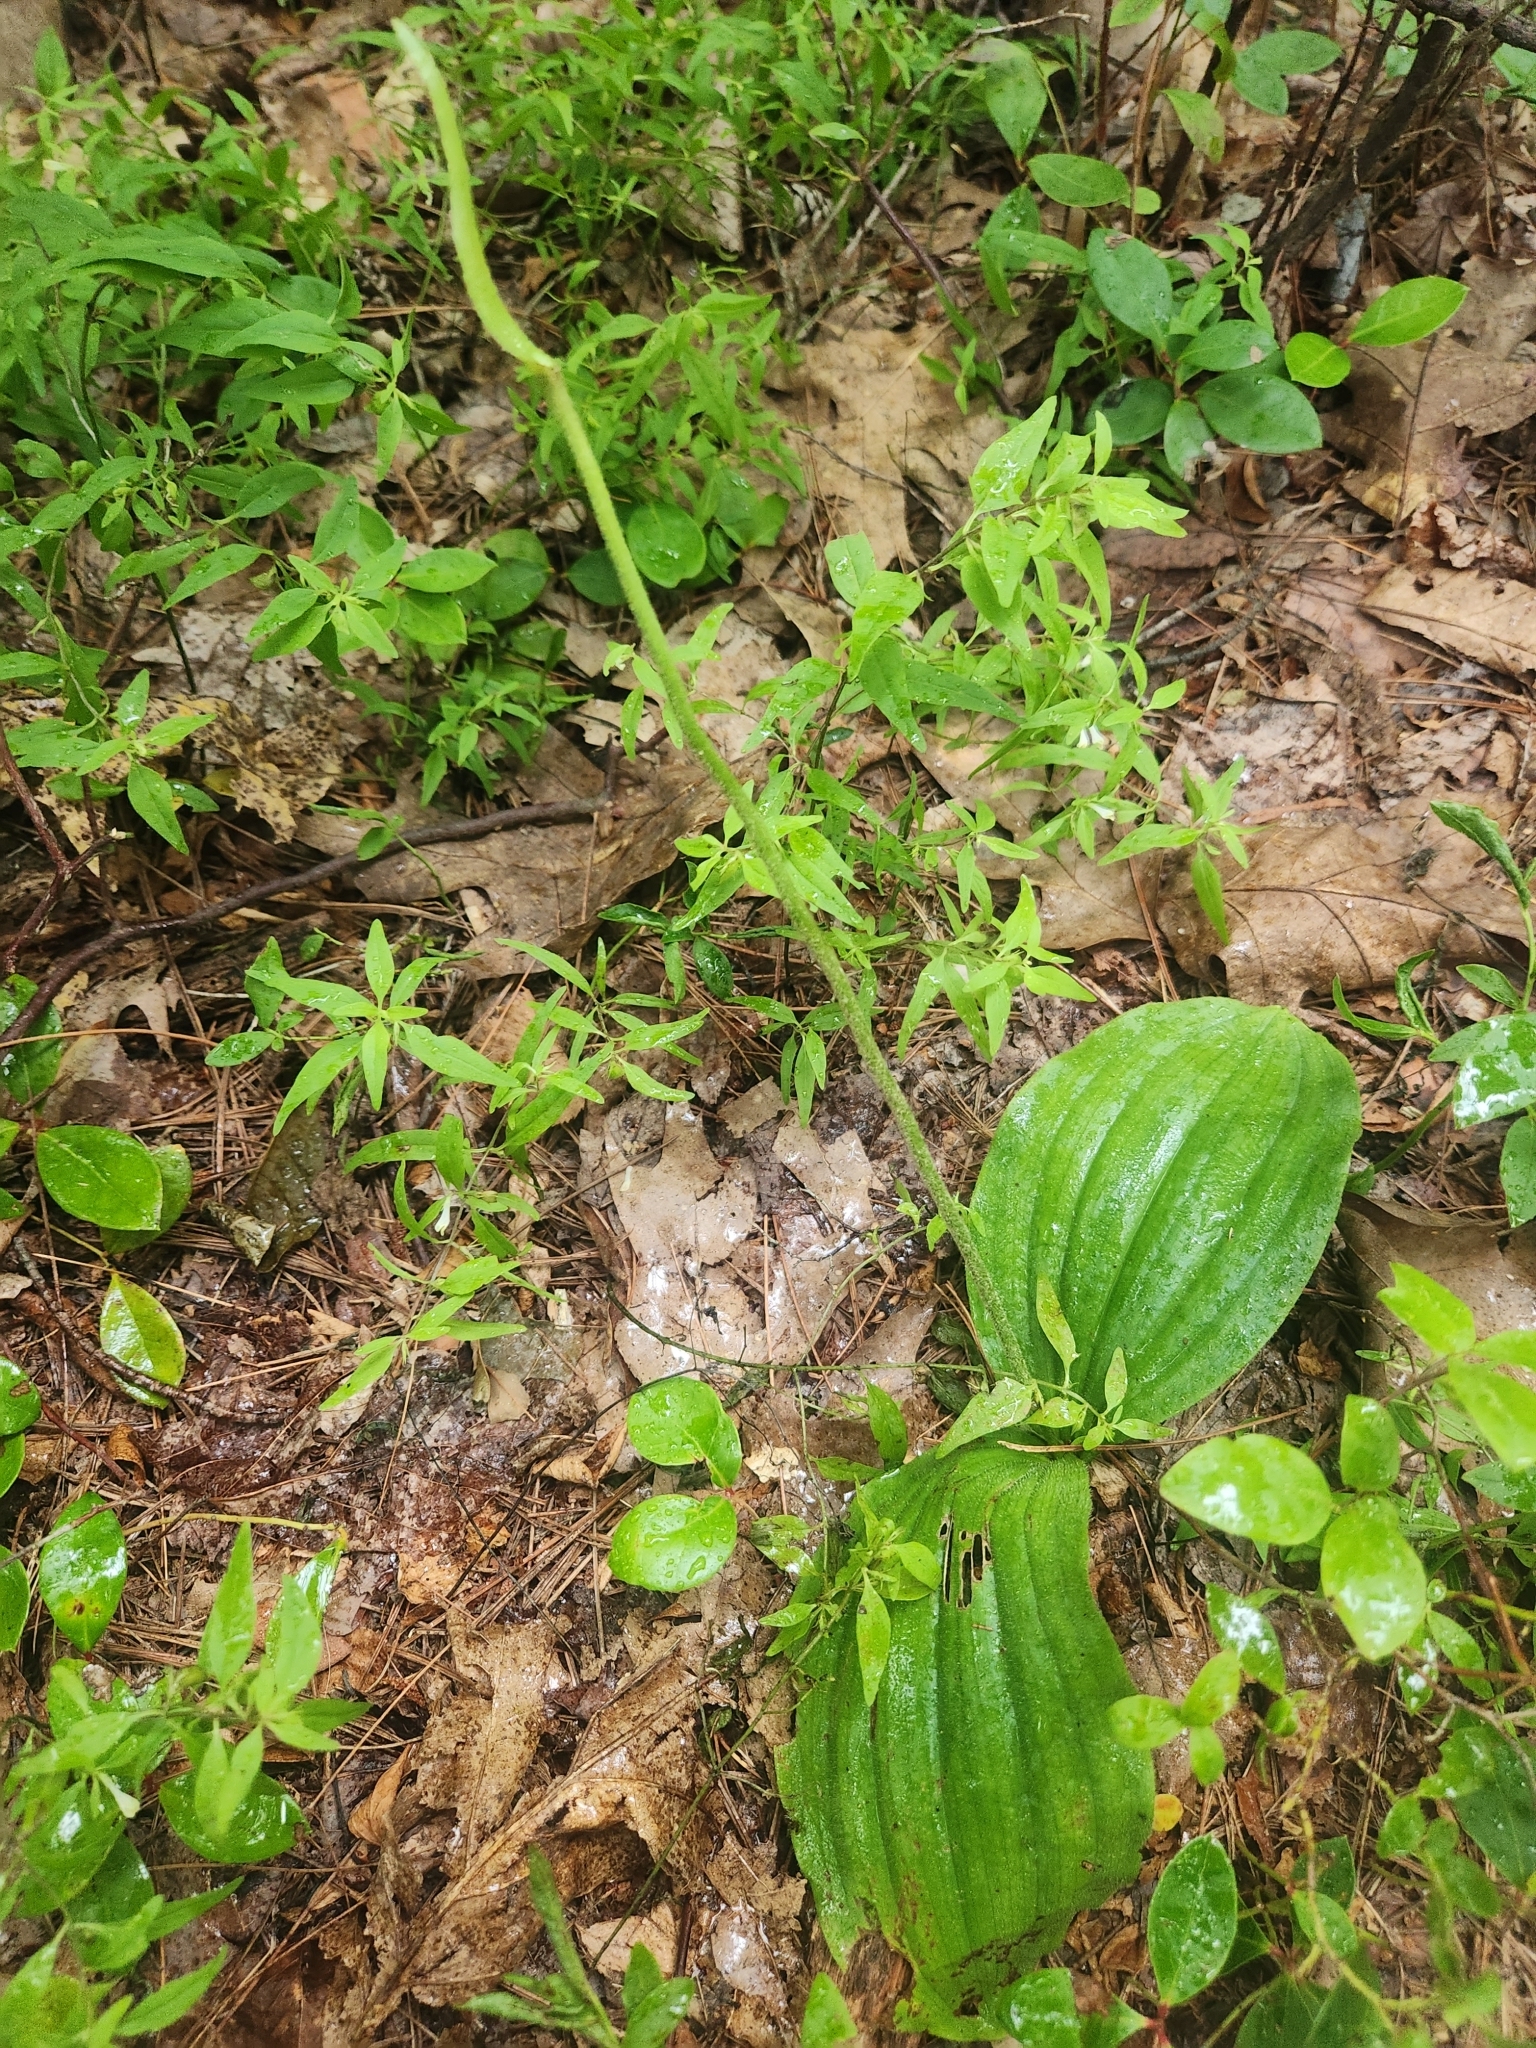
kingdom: Plantae
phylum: Tracheophyta
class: Liliopsida
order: Asparagales
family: Orchidaceae
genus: Cypripedium
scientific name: Cypripedium acaule
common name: Pink lady's-slipper
